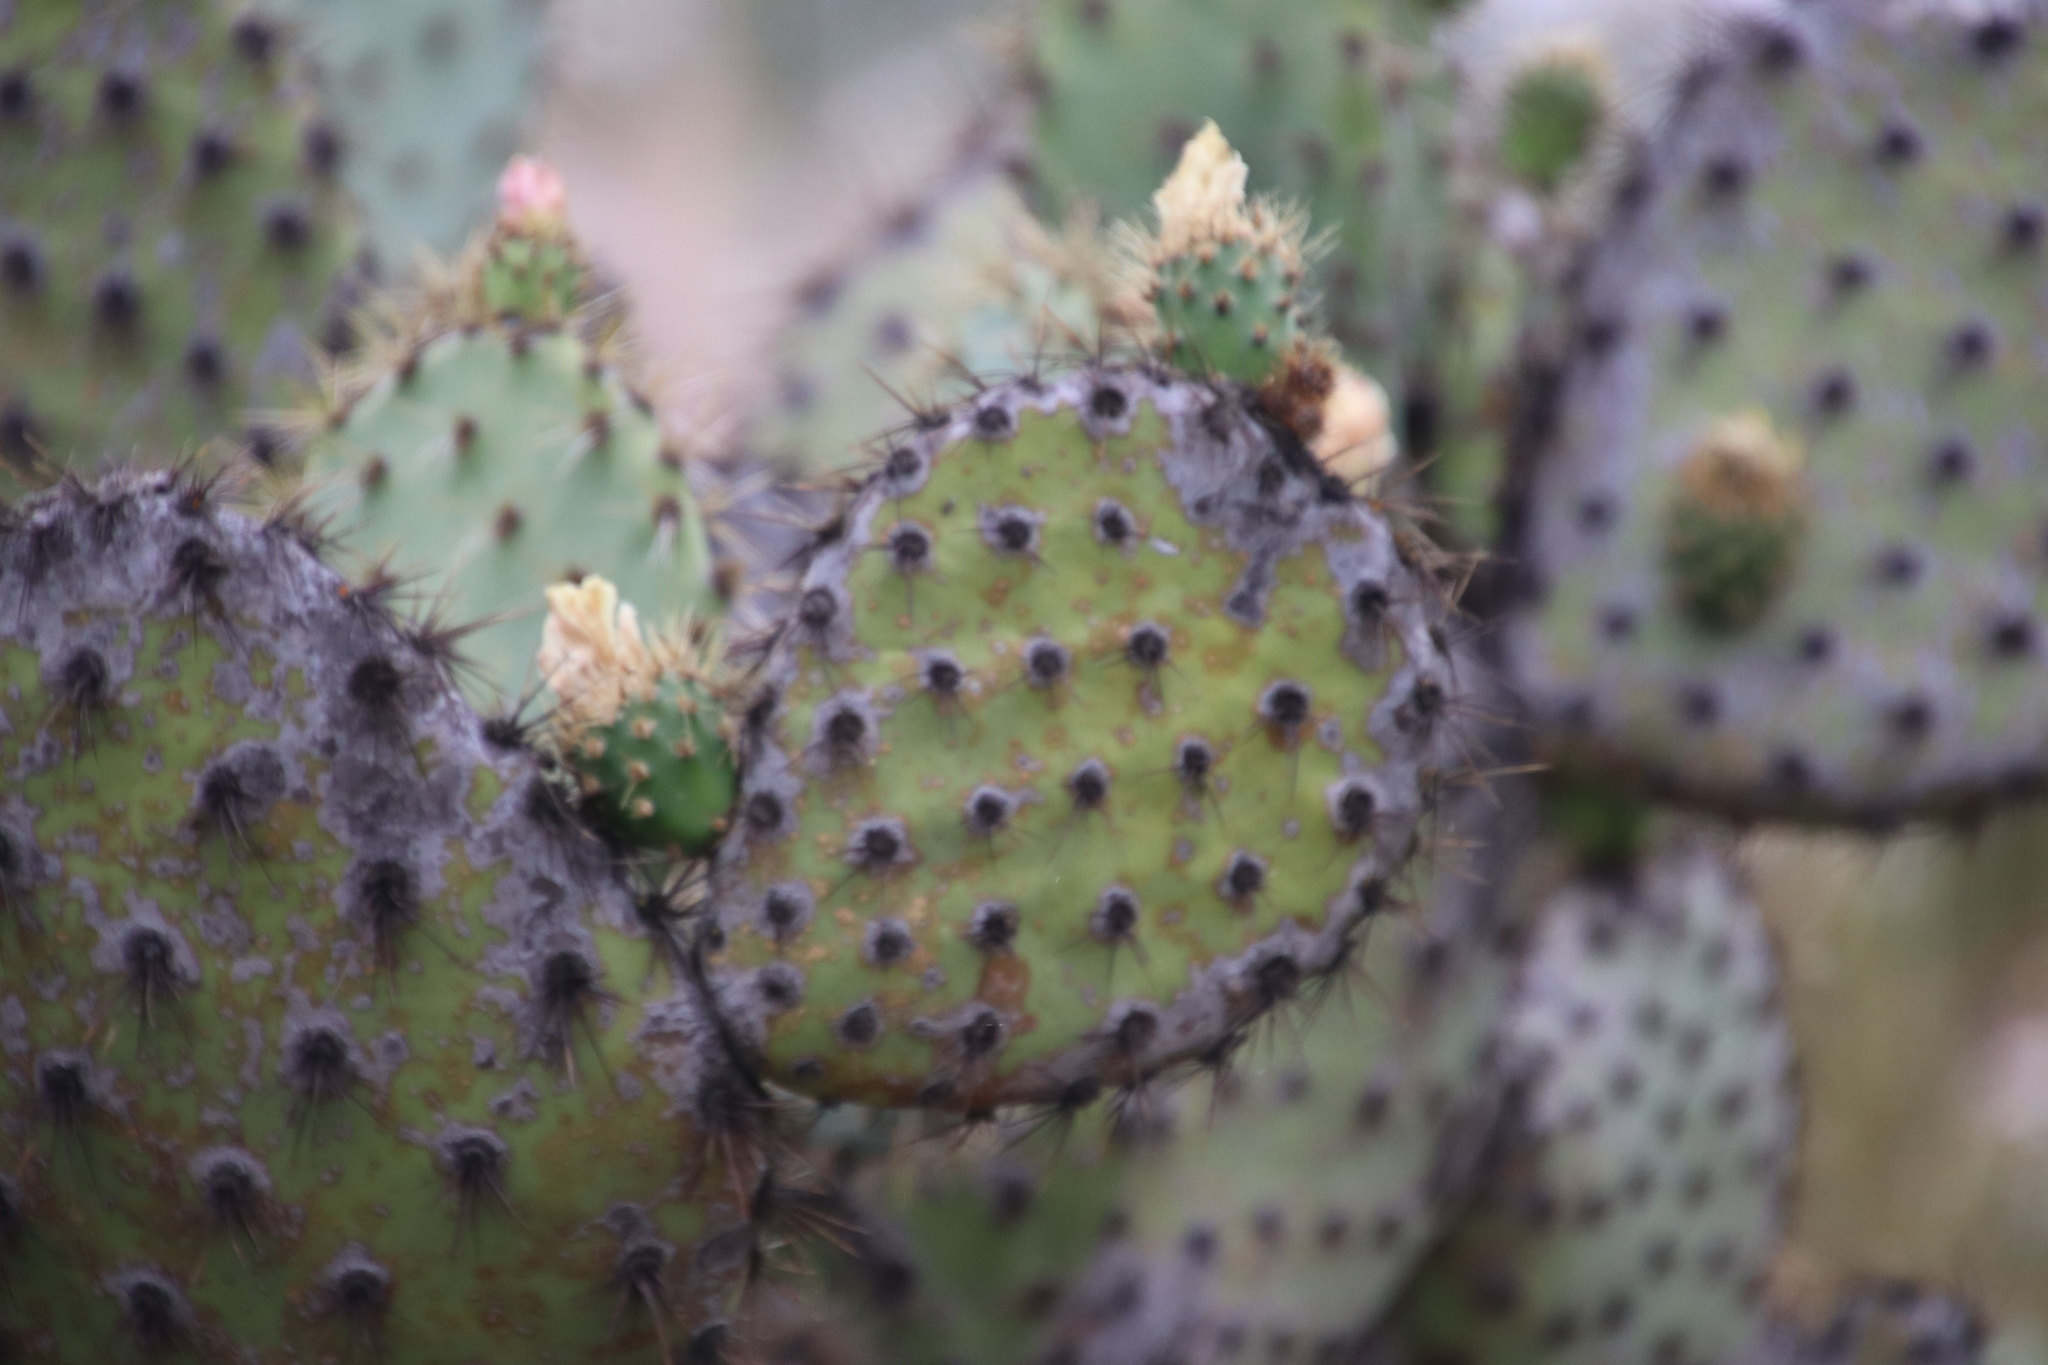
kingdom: Plantae
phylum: Tracheophyta
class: Magnoliopsida
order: Caryophyllales
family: Cactaceae
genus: Opuntia
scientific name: Opuntia oricola
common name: Chaparral prickly-pear
